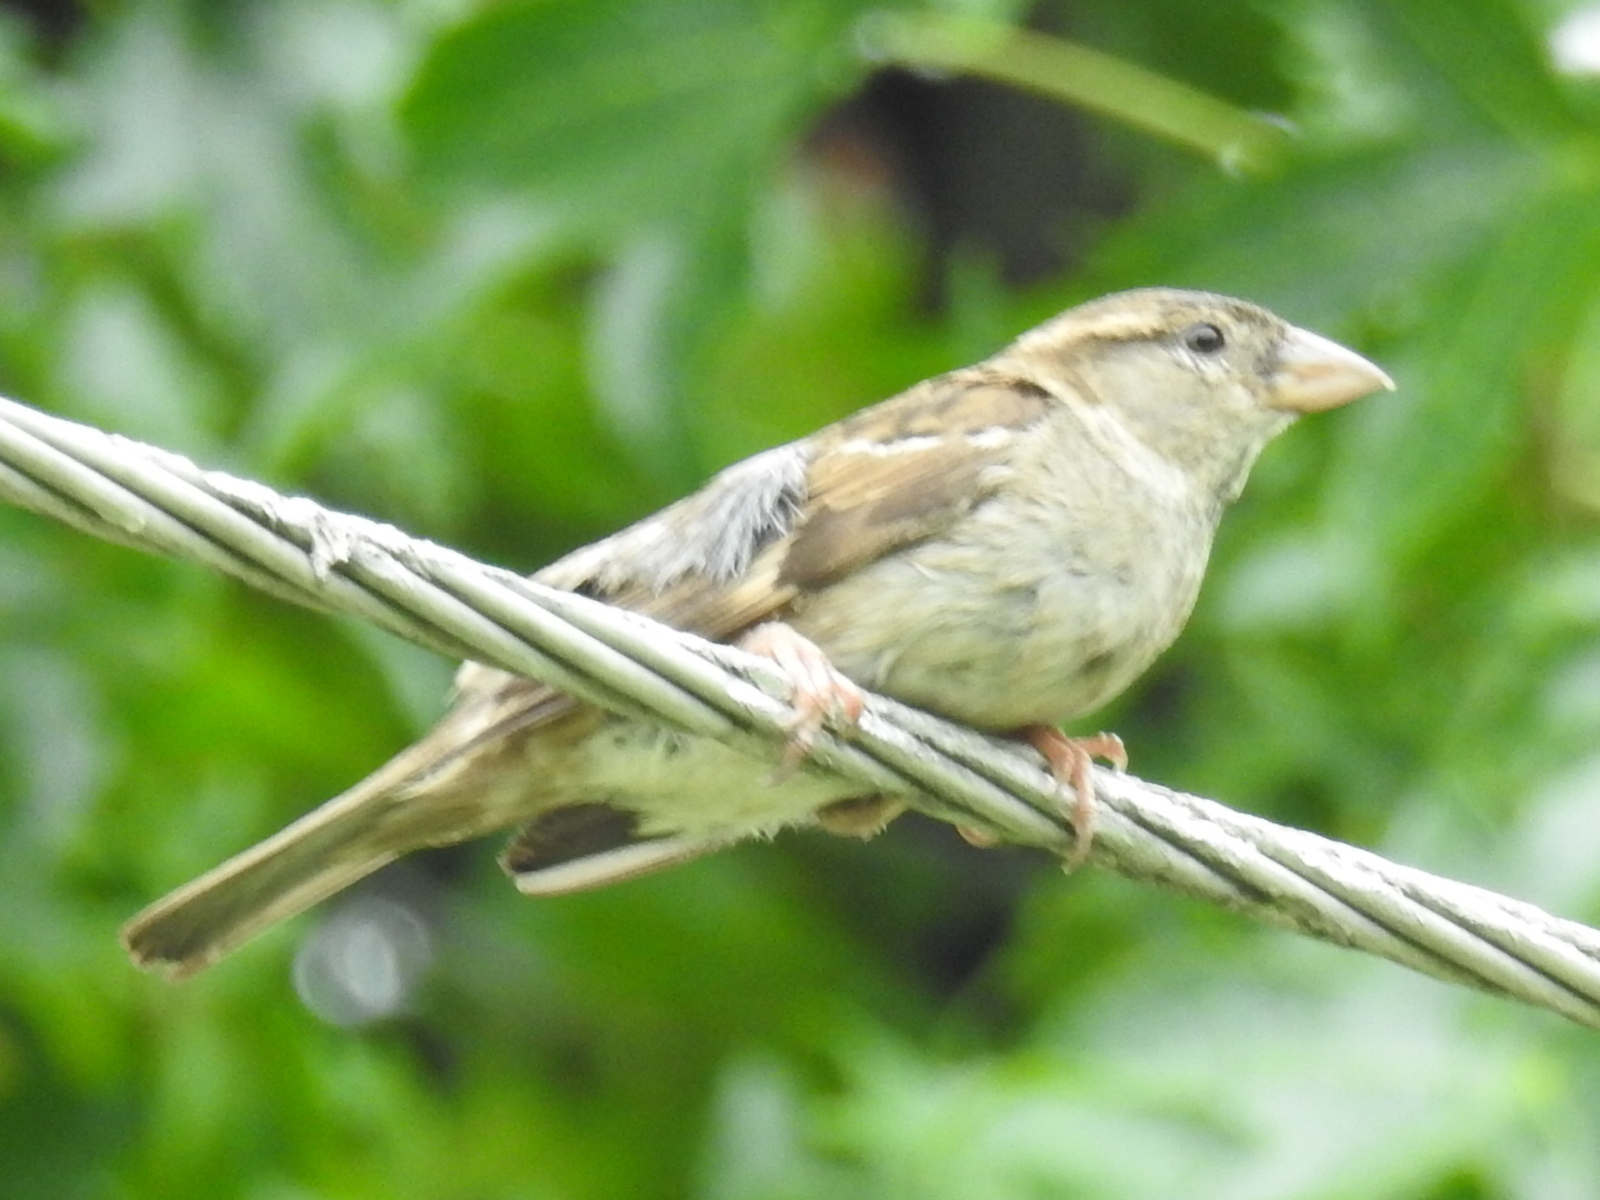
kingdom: Animalia
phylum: Chordata
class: Aves
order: Passeriformes
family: Passeridae
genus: Passer
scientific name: Passer domesticus
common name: House sparrow
